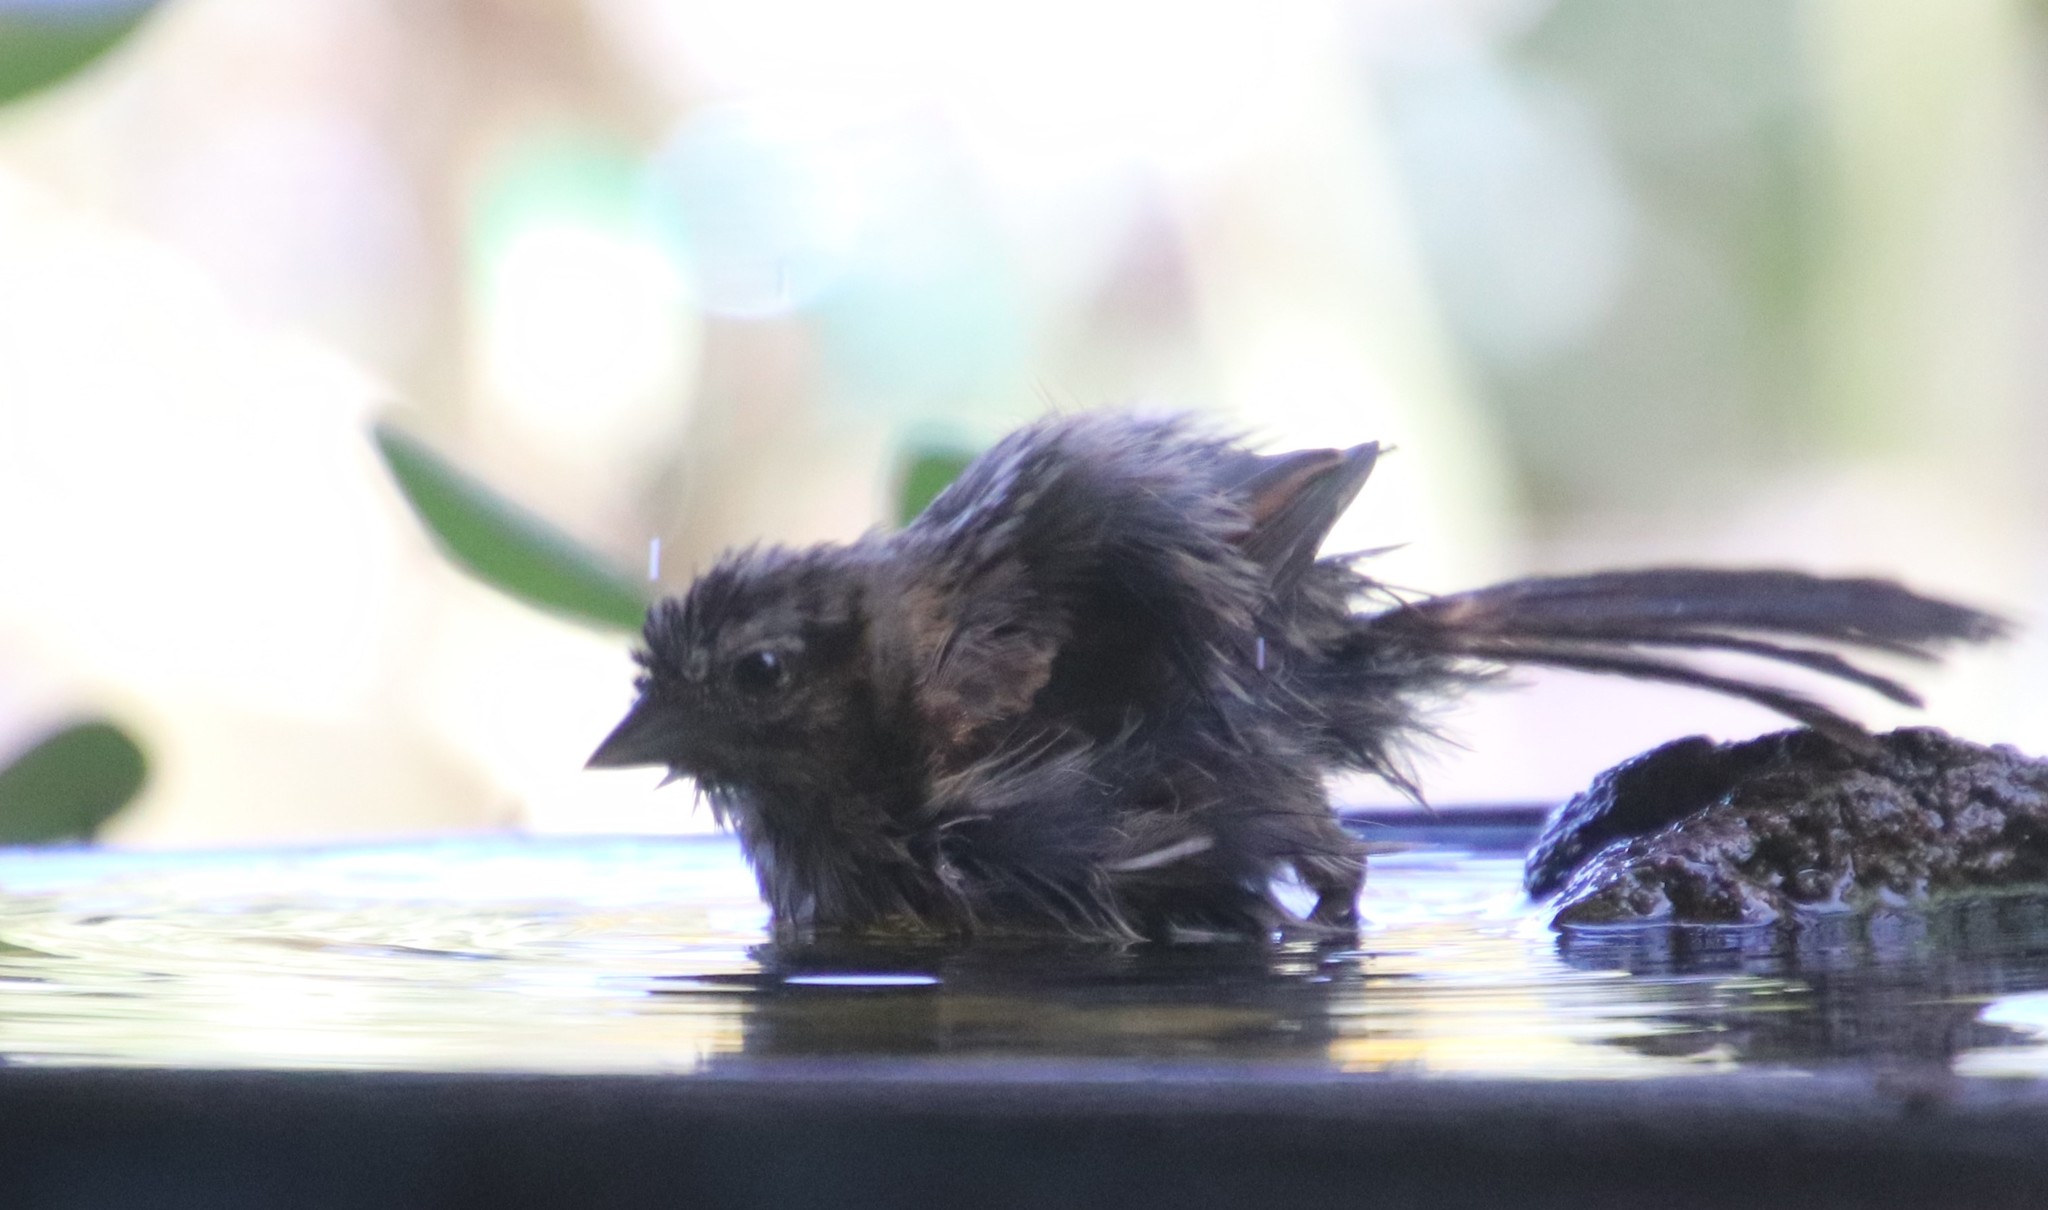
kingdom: Animalia
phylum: Chordata
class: Aves
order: Passeriformes
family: Passerellidae
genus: Melospiza
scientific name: Melospiza melodia
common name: Song sparrow
